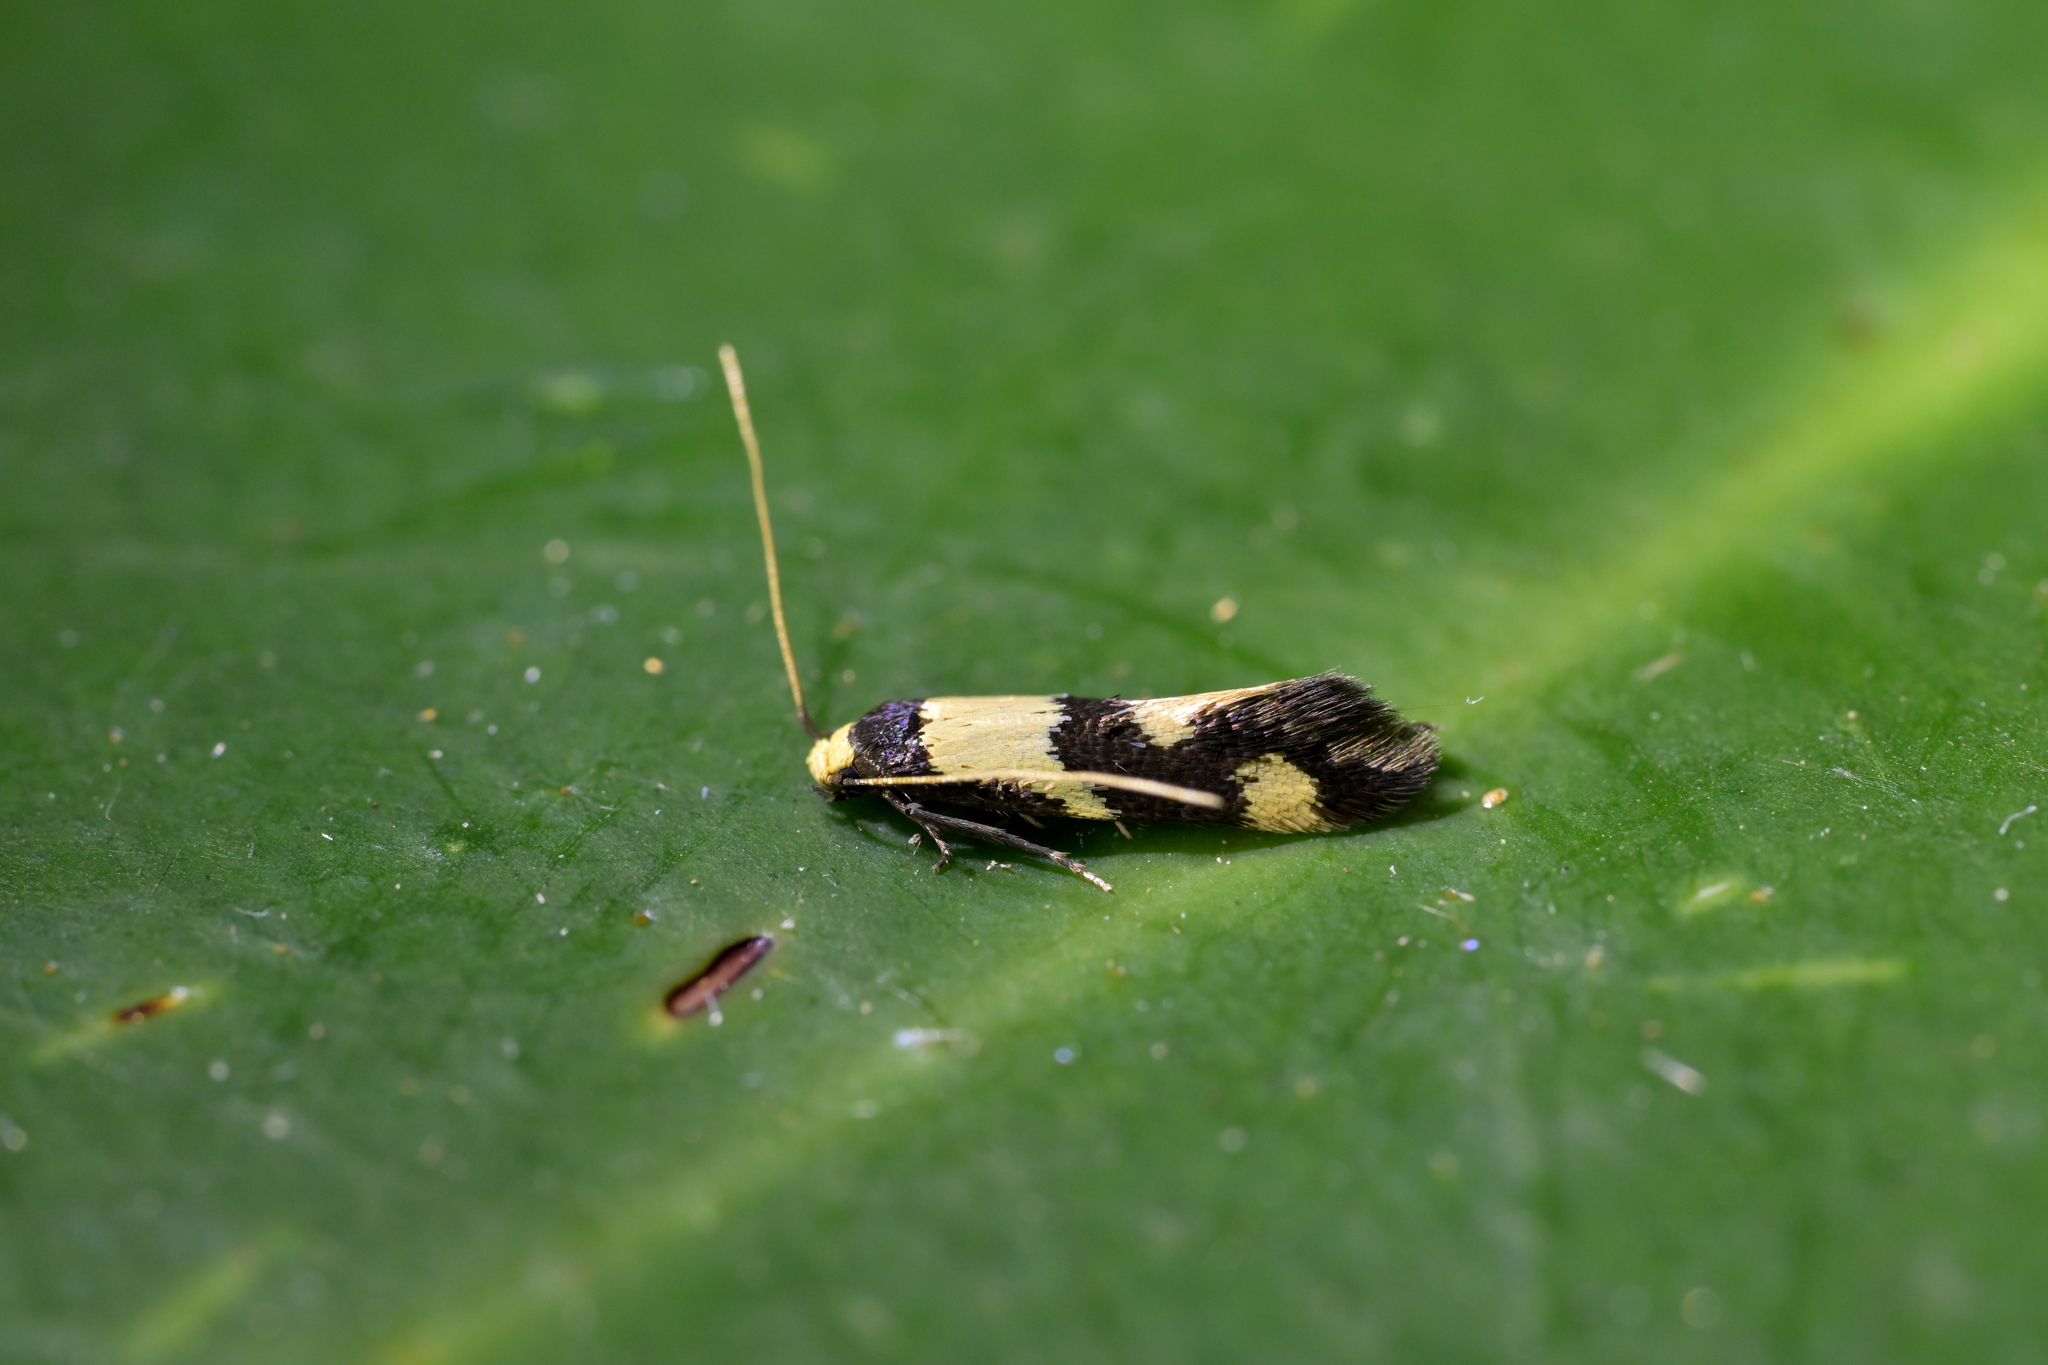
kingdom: Animalia
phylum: Arthropoda
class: Insecta
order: Lepidoptera
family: Tineidae
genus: Opogona
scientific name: Opogona comptella
